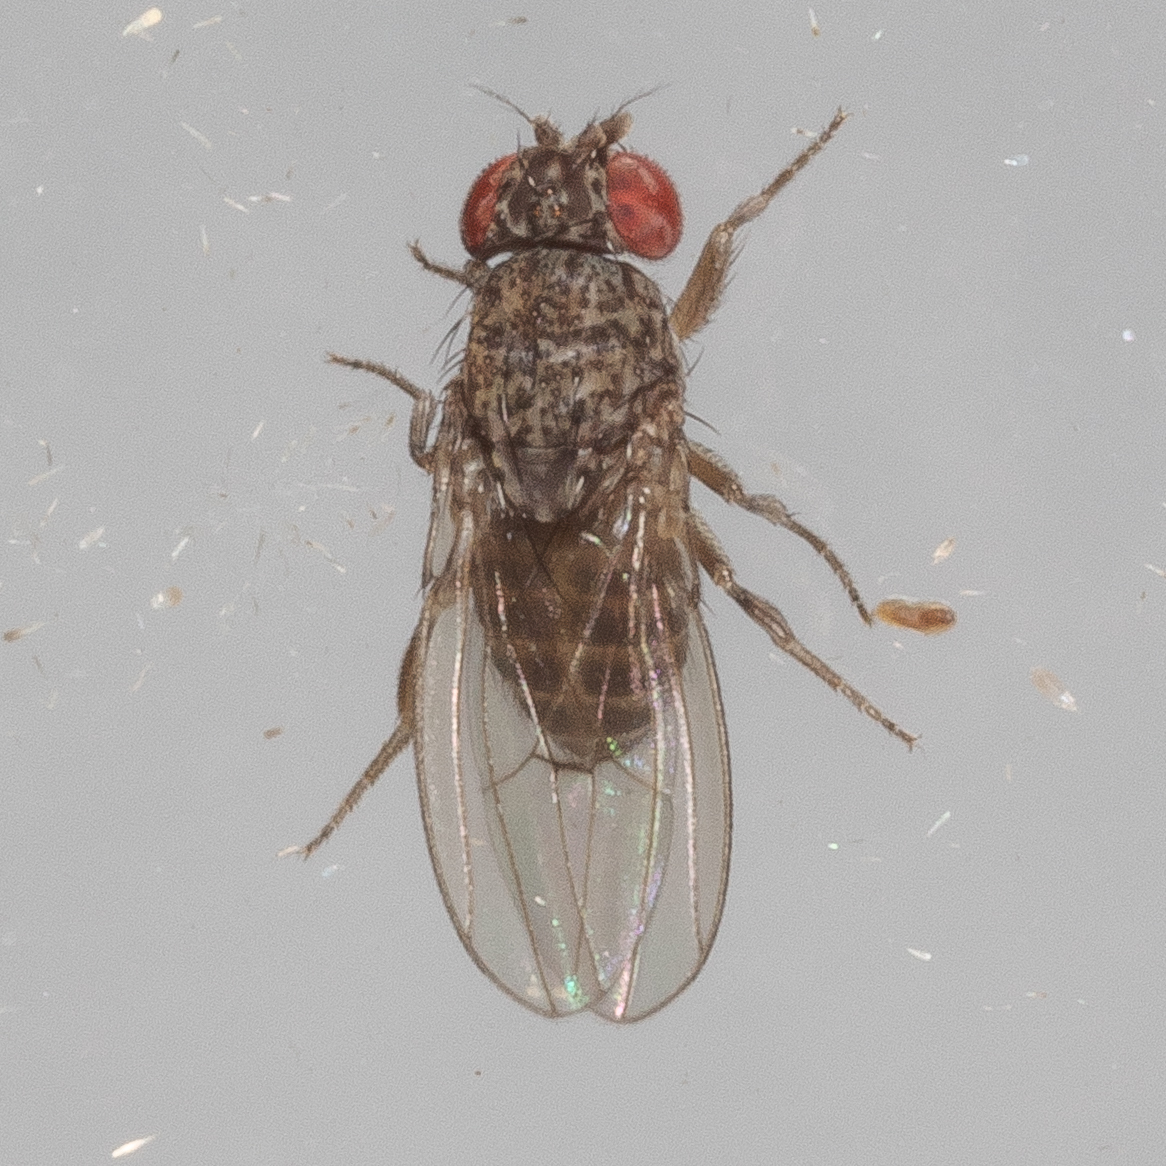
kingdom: Animalia
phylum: Arthropoda
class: Insecta
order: Diptera
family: Drosophilidae
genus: Drosophila
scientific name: Drosophila
